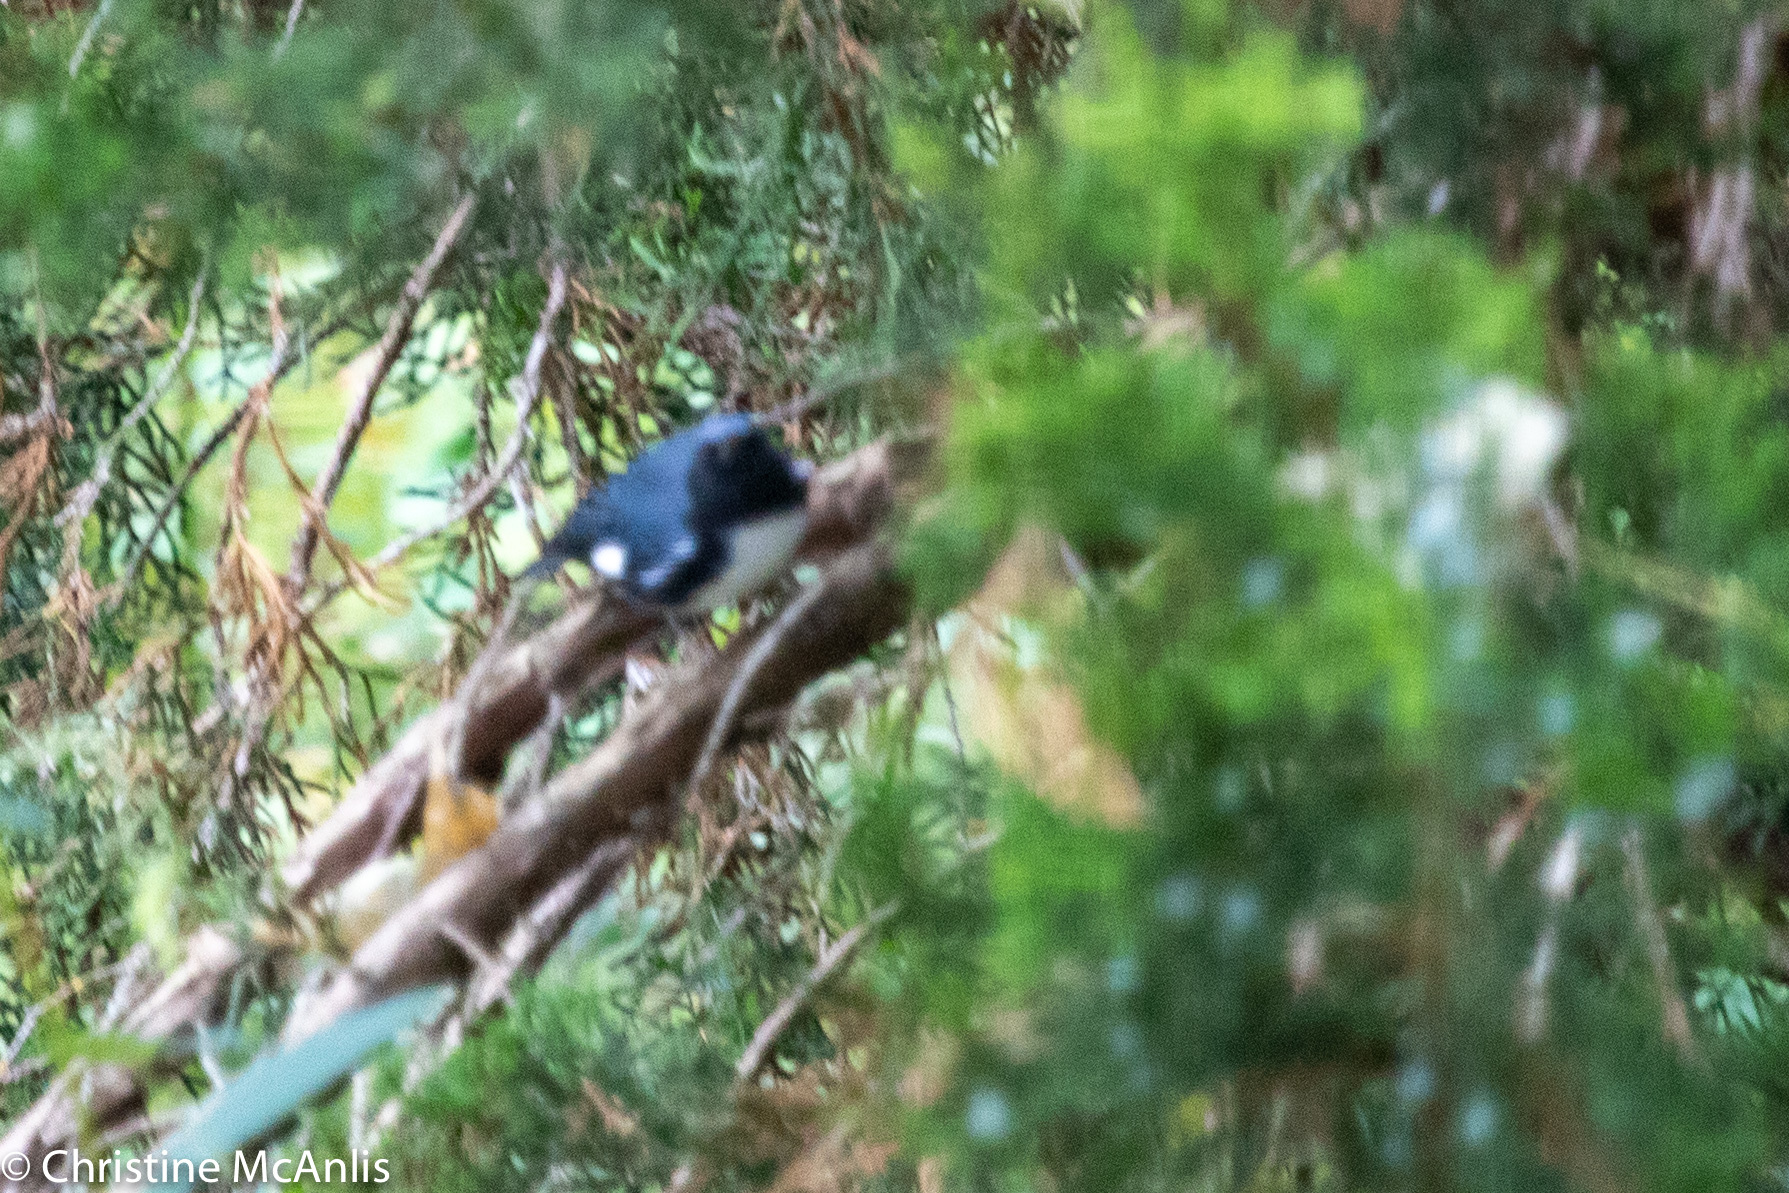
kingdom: Animalia
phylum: Chordata
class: Aves
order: Passeriformes
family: Parulidae
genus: Setophaga
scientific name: Setophaga caerulescens
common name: Black-throated blue warbler
